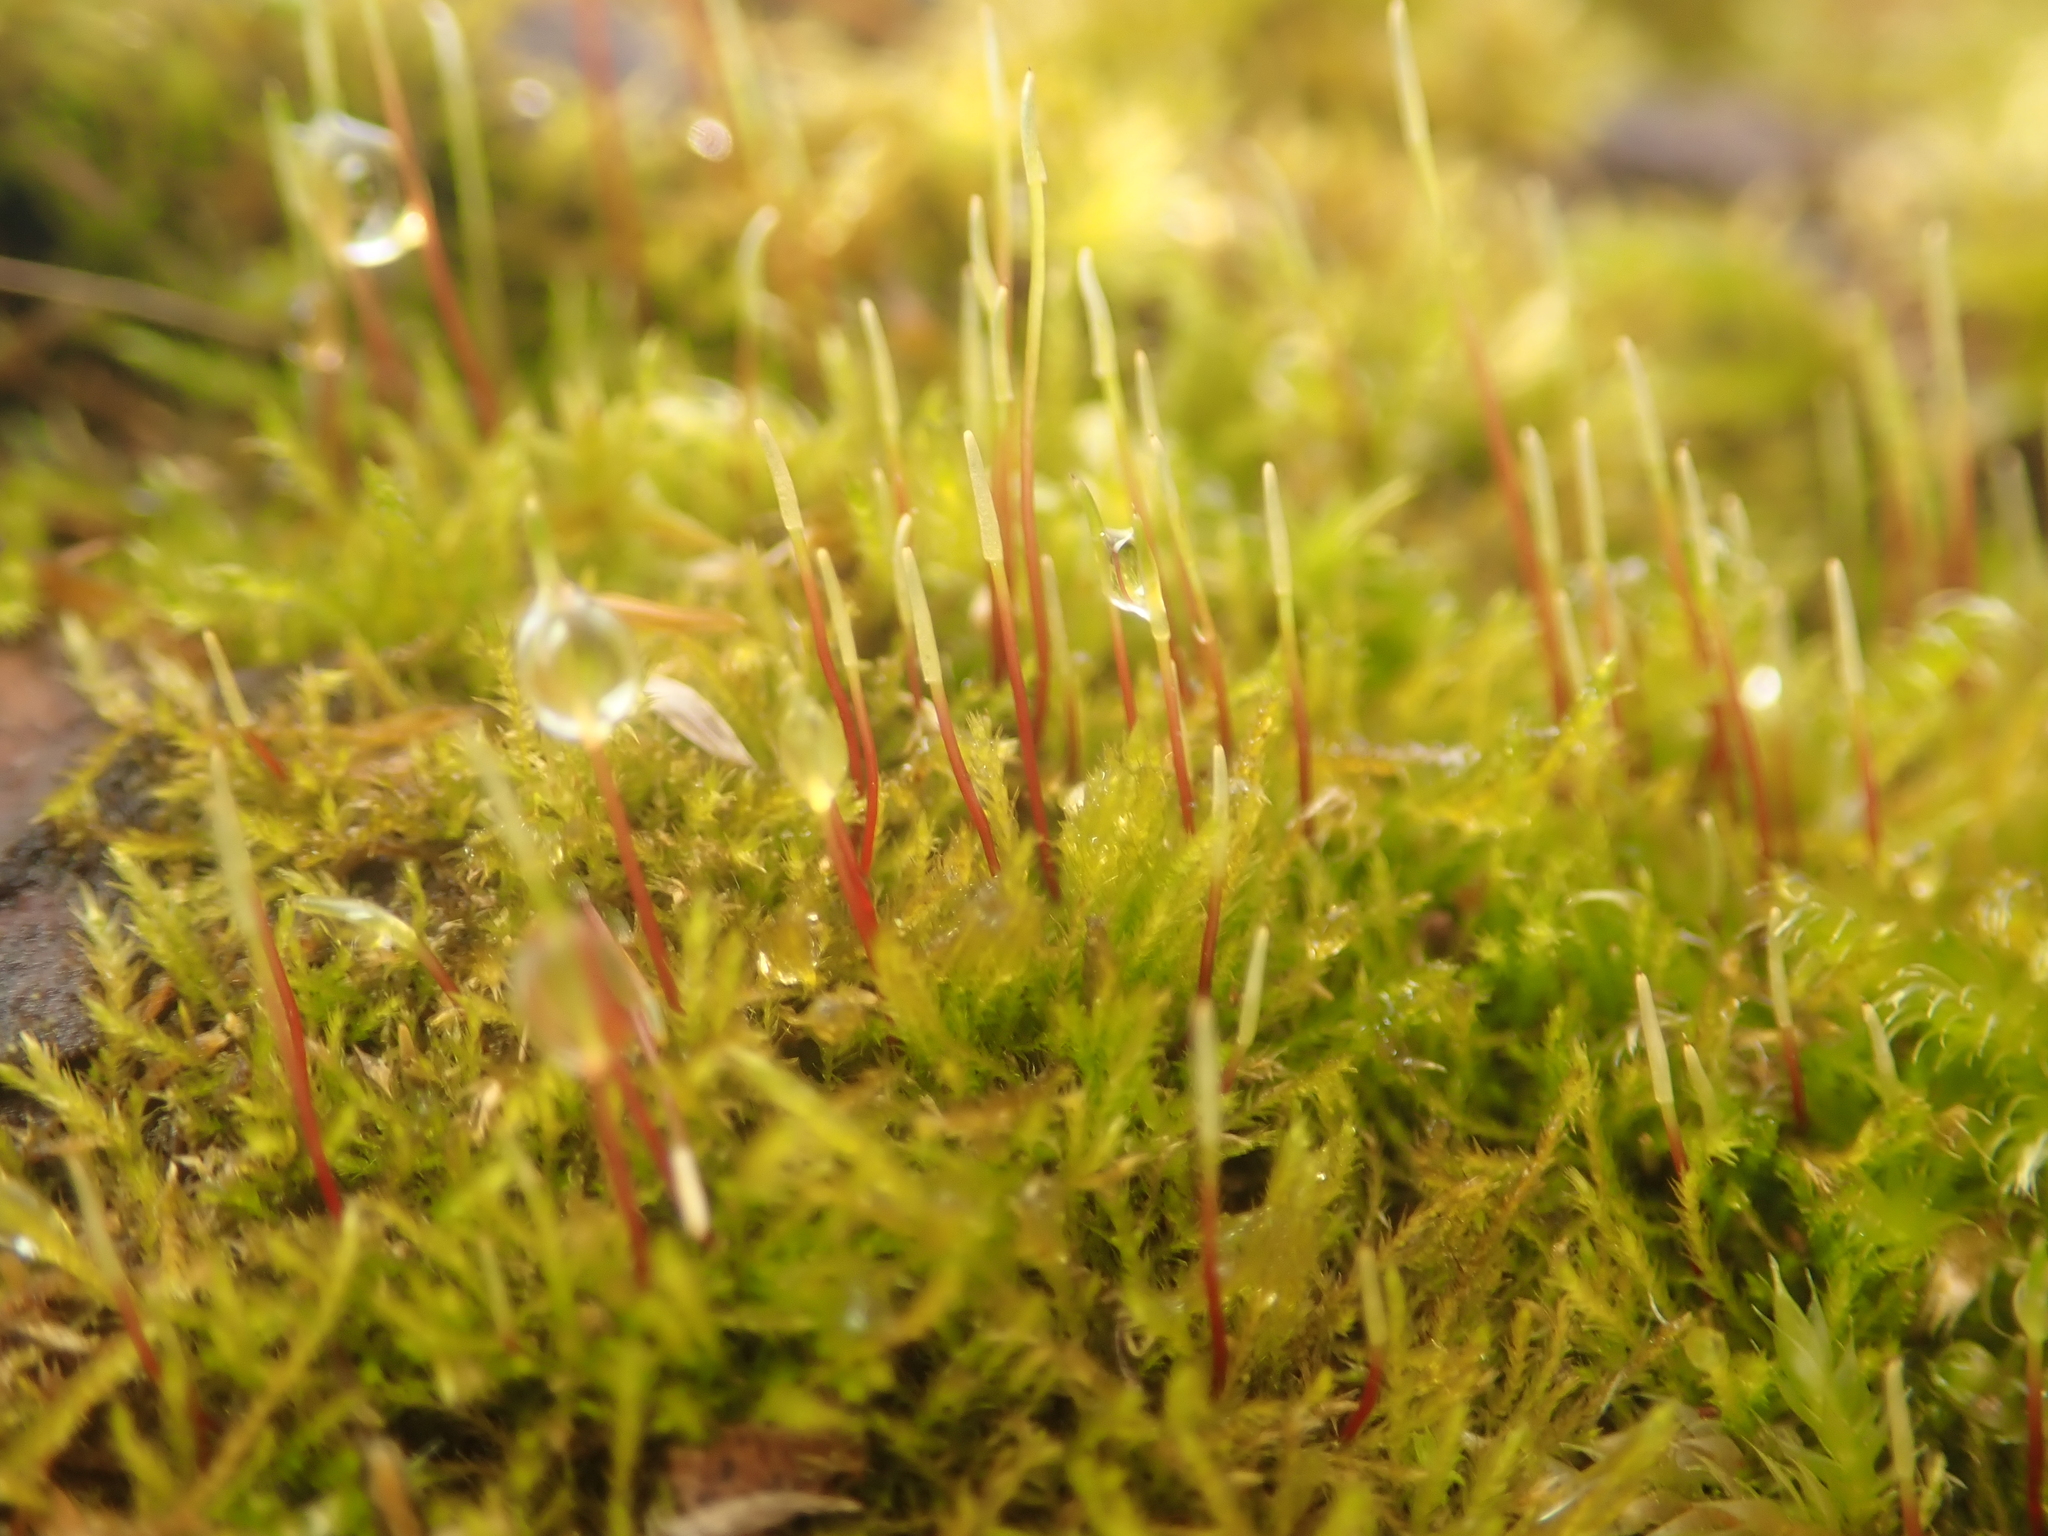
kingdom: Plantae
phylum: Bryophyta
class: Bryopsida
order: Hypnales
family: Amblystegiaceae
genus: Amblystegium
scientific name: Amblystegium serpens
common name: Jurkatzka's feather moss
